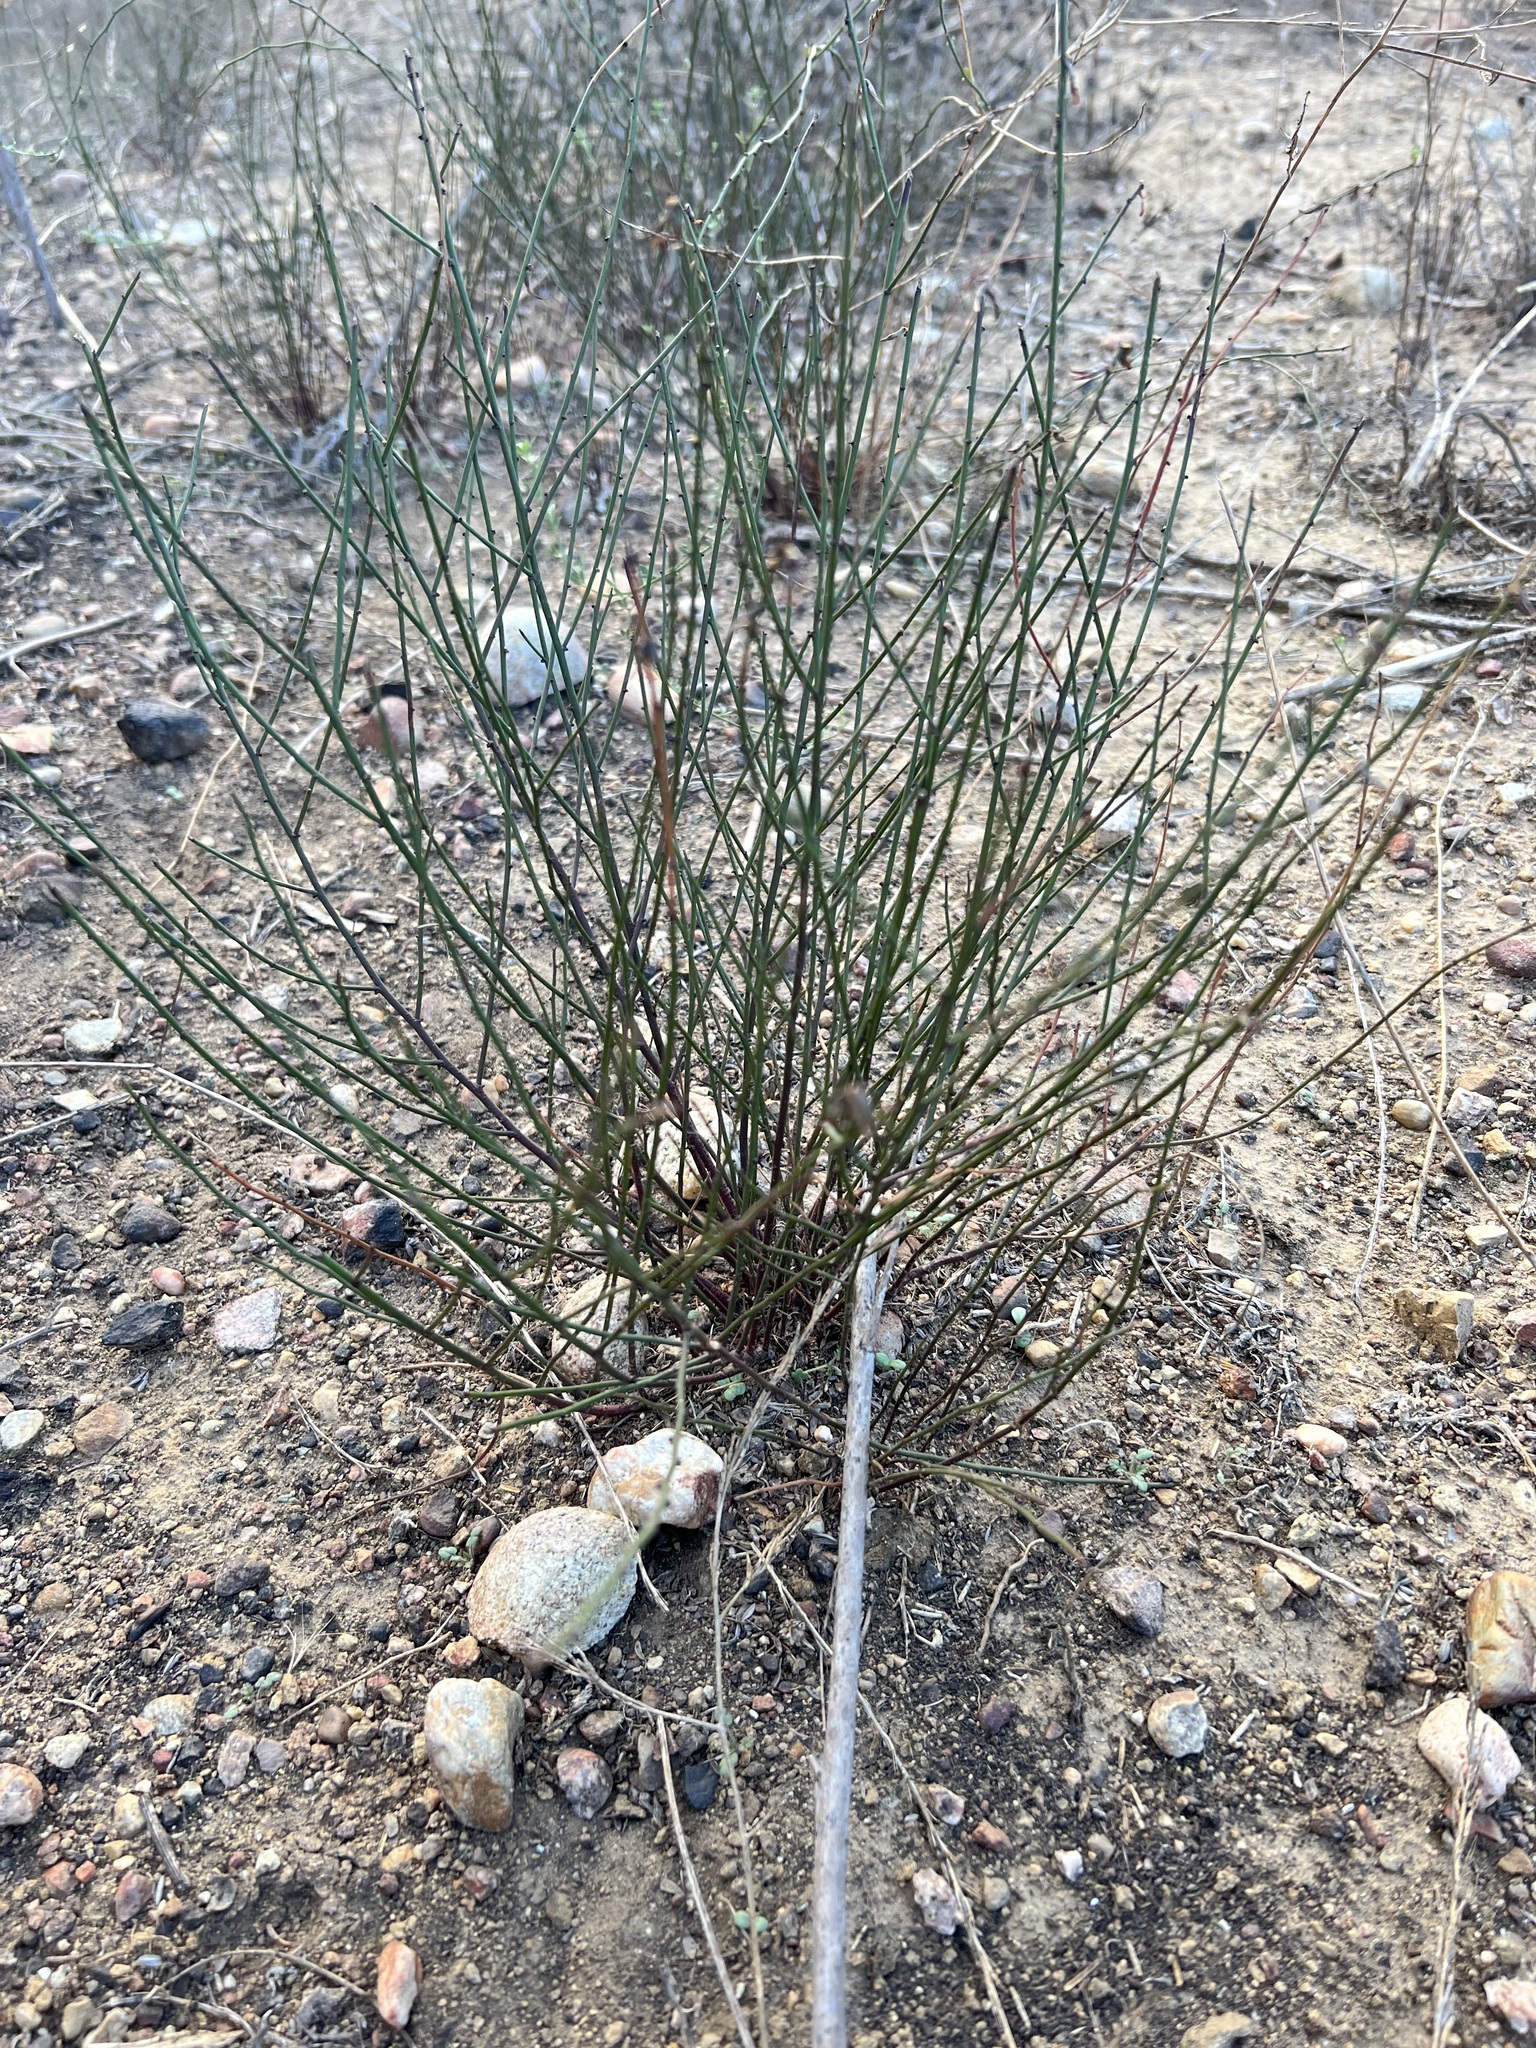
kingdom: Plantae
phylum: Tracheophyta
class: Magnoliopsida
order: Fabales
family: Fabaceae
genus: Acmispon
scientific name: Acmispon glaber
